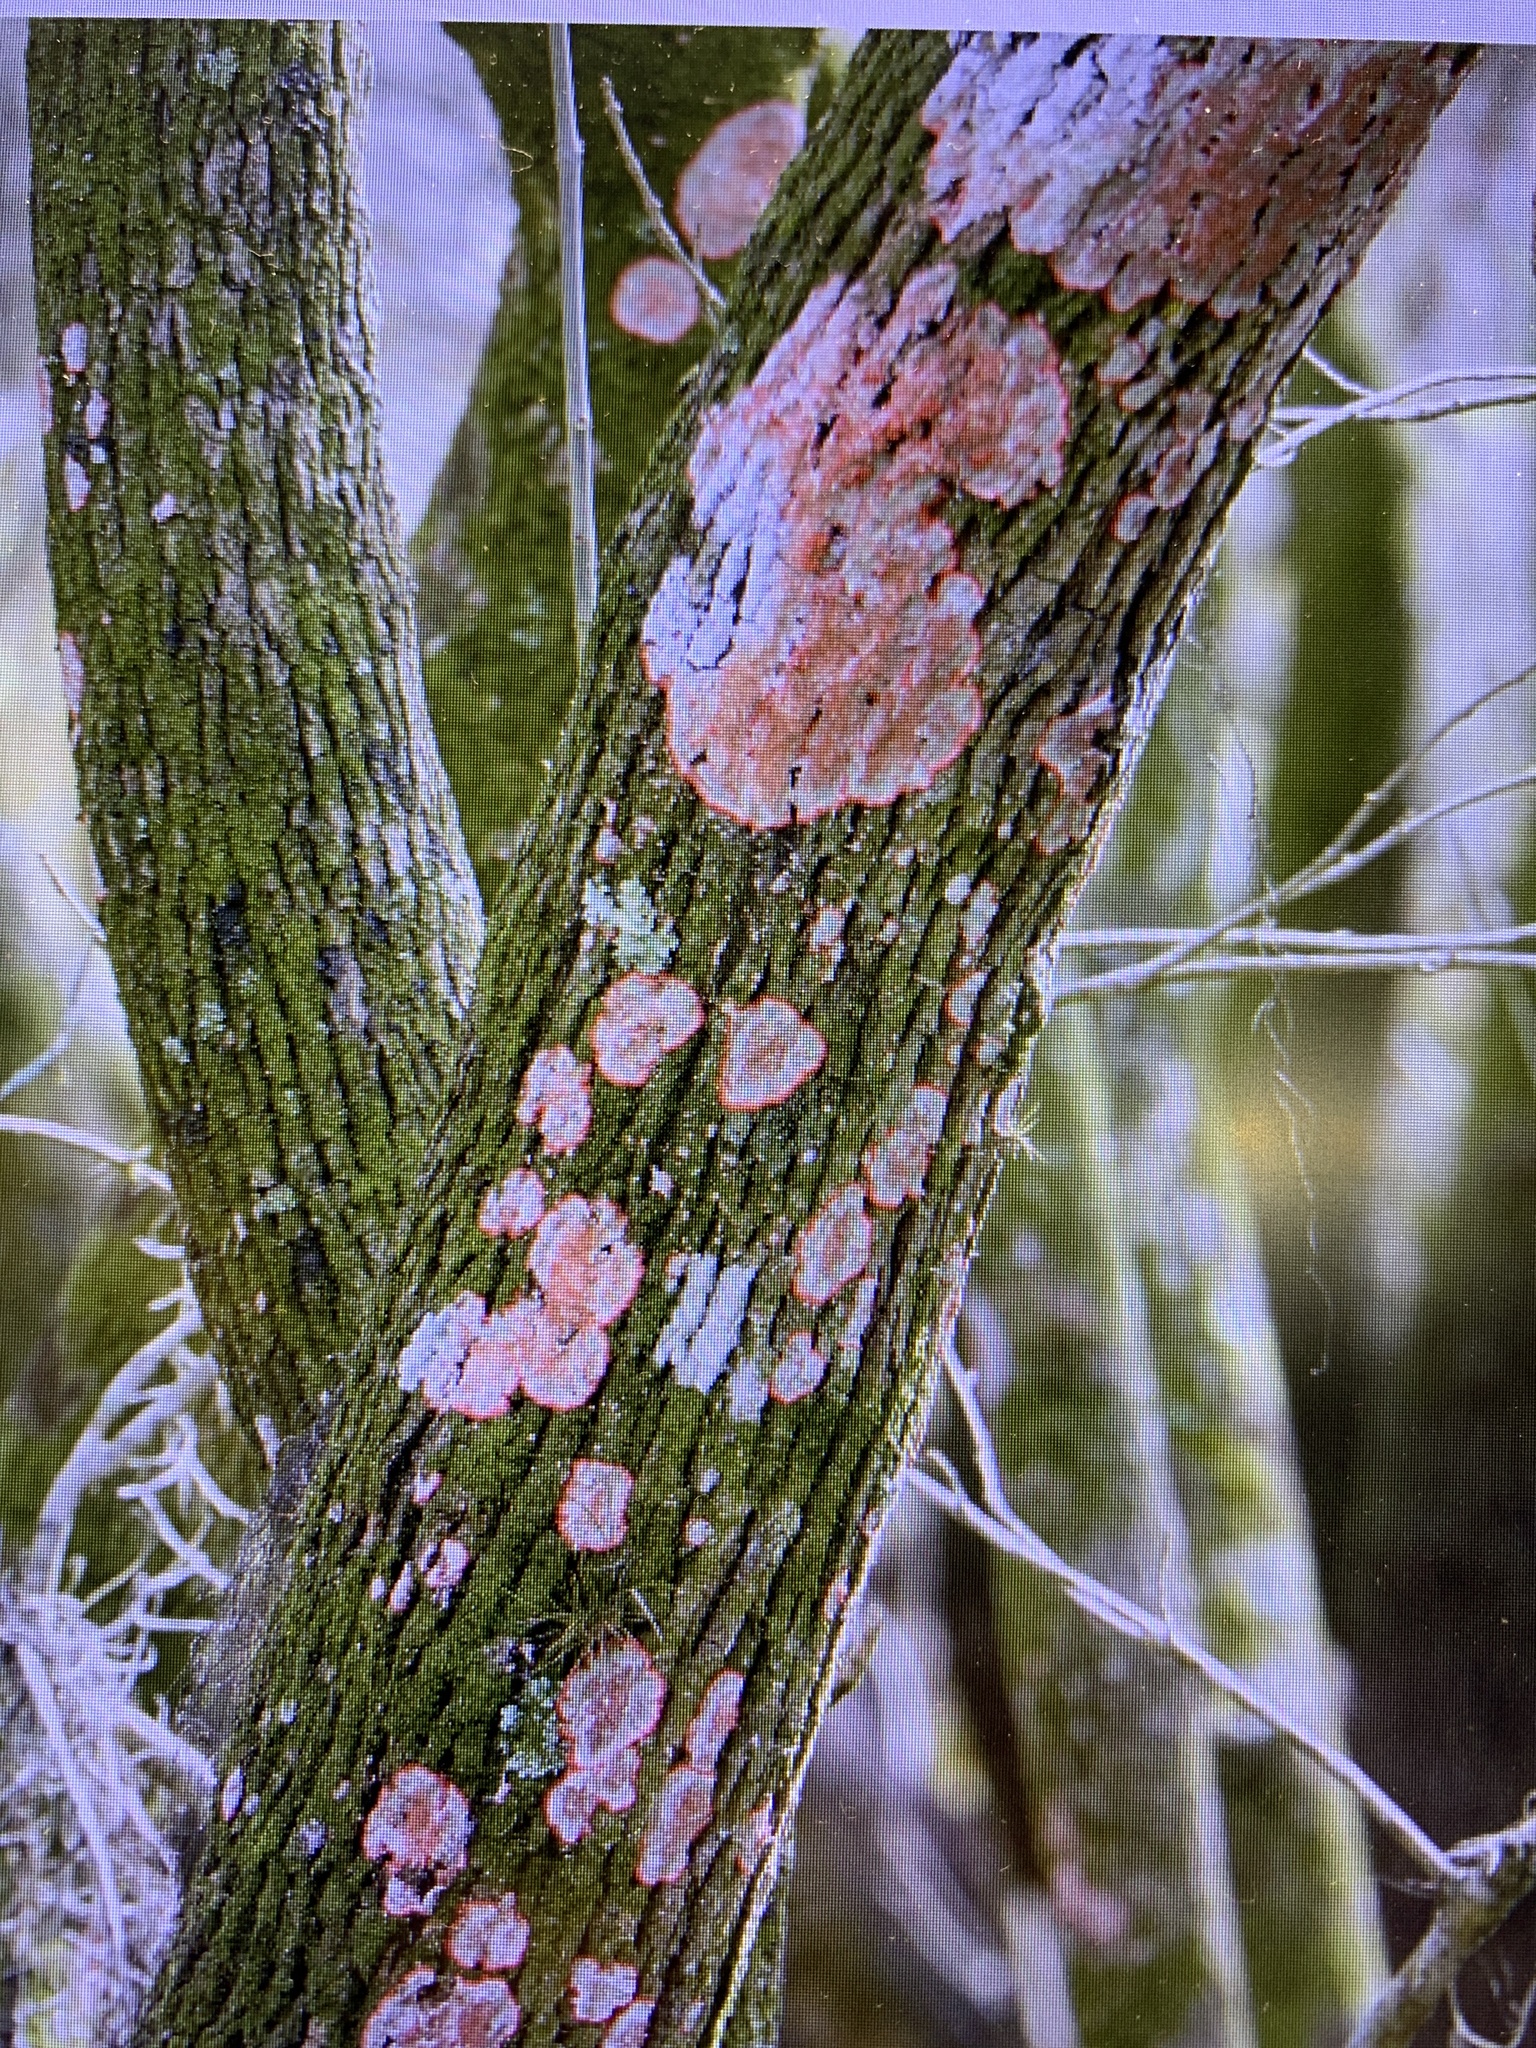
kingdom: Fungi
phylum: Ascomycota
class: Arthoniomycetes
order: Arthoniales
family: Arthoniaceae
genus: Herpothallon
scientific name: Herpothallon rubrocinctum
